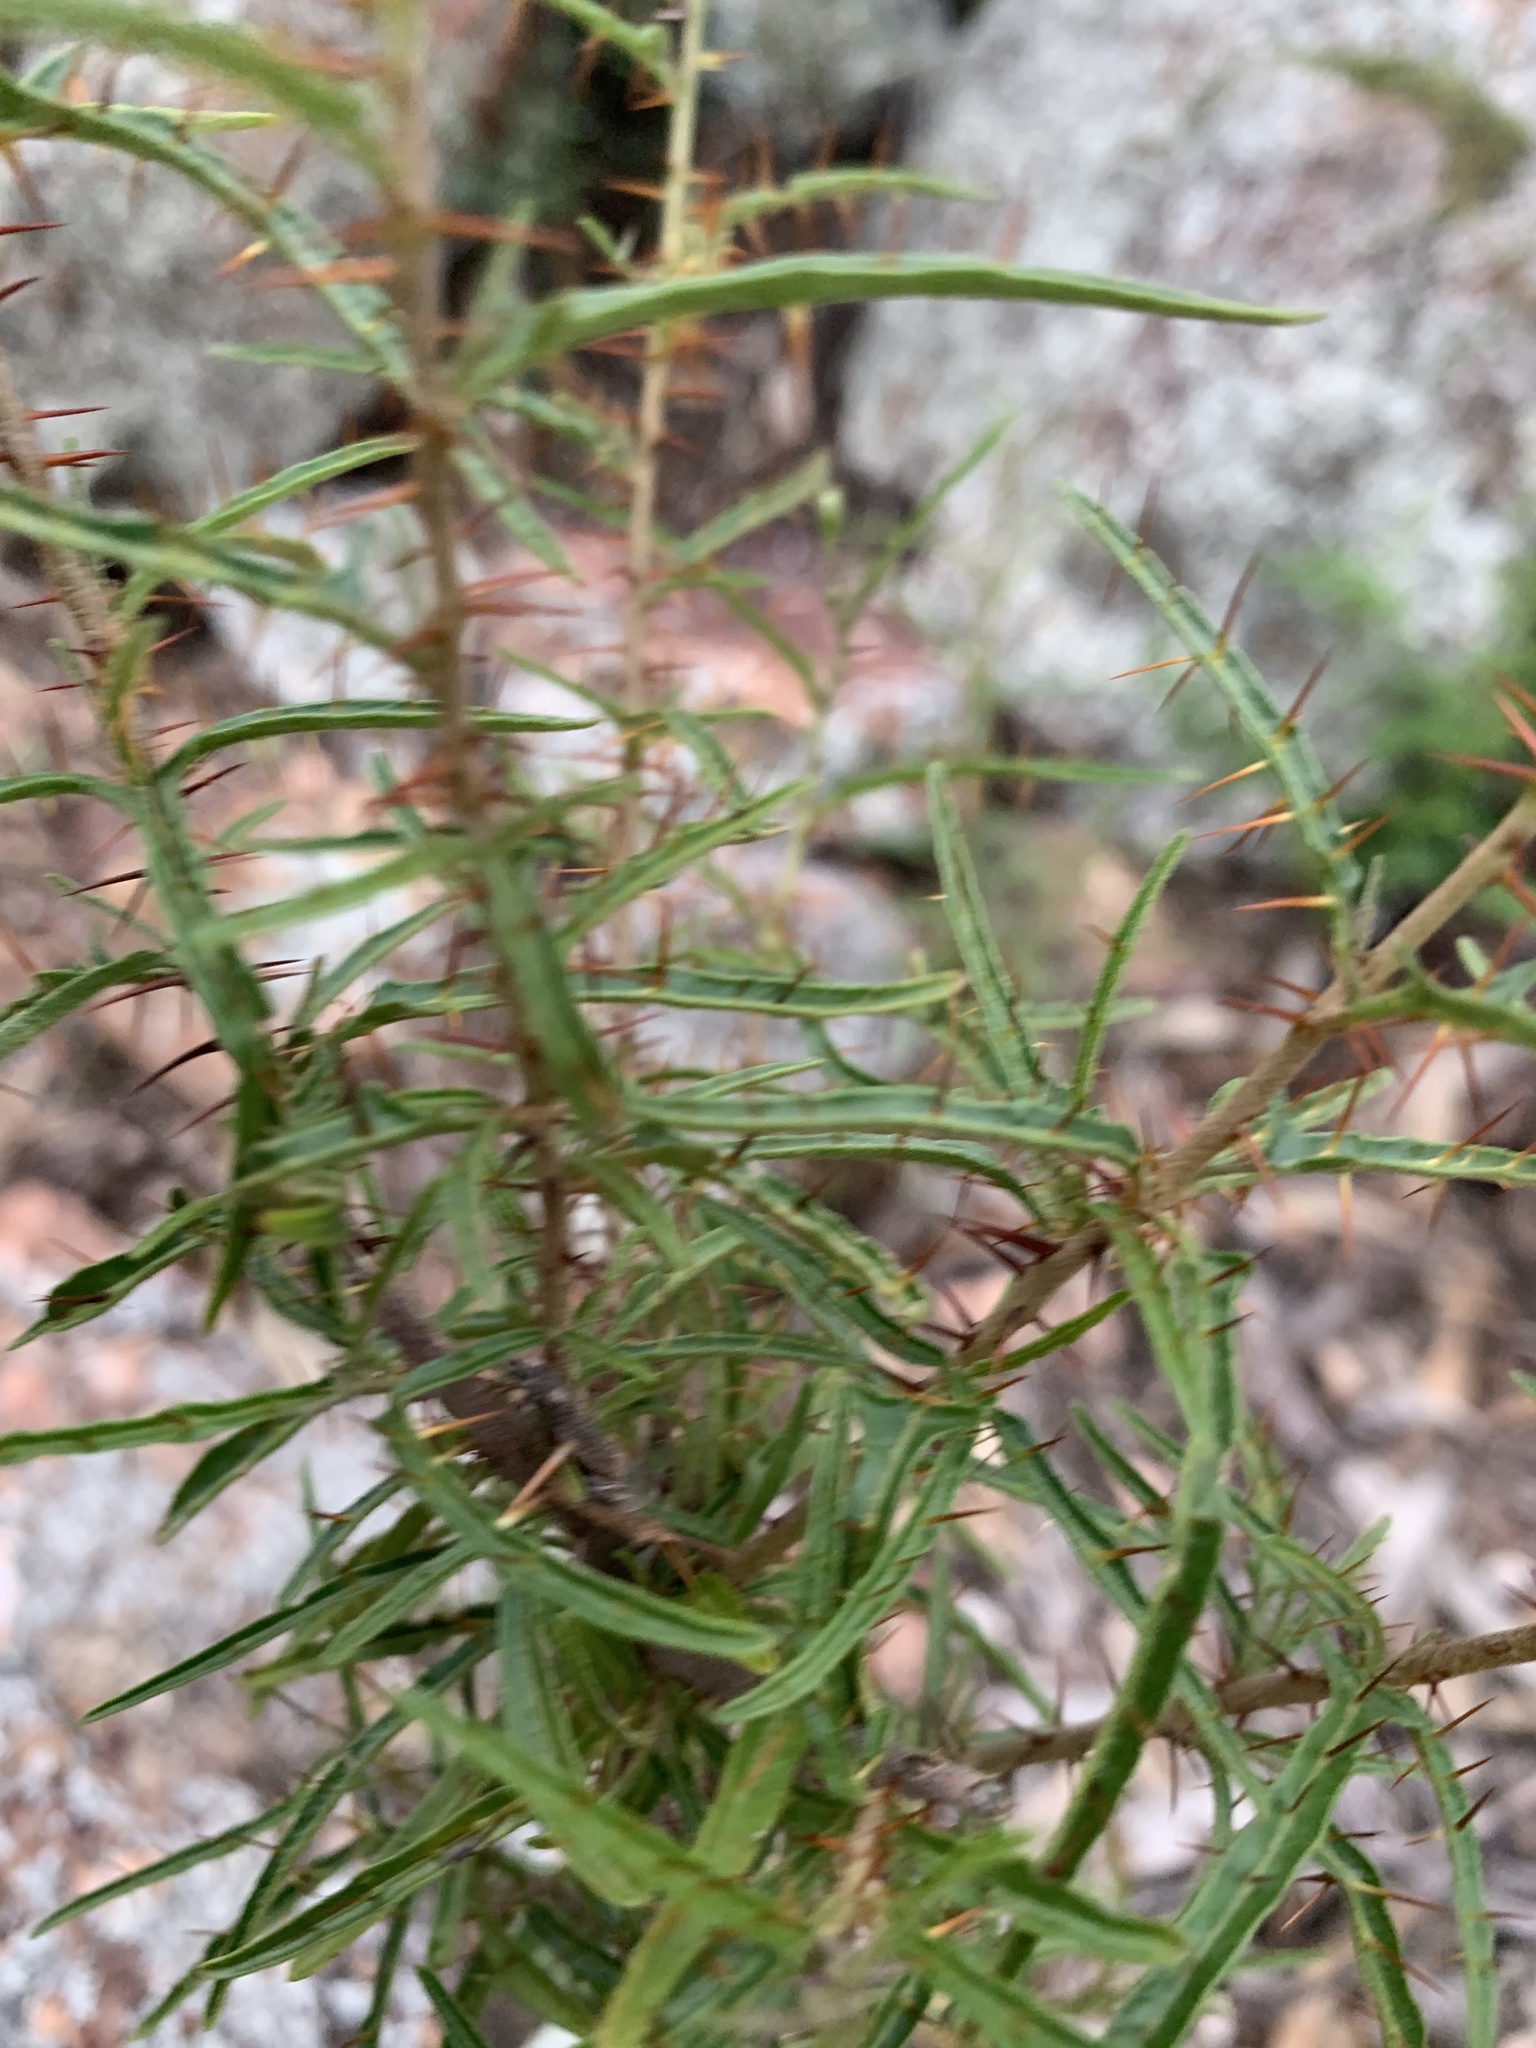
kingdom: Plantae
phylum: Tracheophyta
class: Magnoliopsida
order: Solanales
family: Solanaceae
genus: Solanum
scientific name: Solanum ferocissimum
